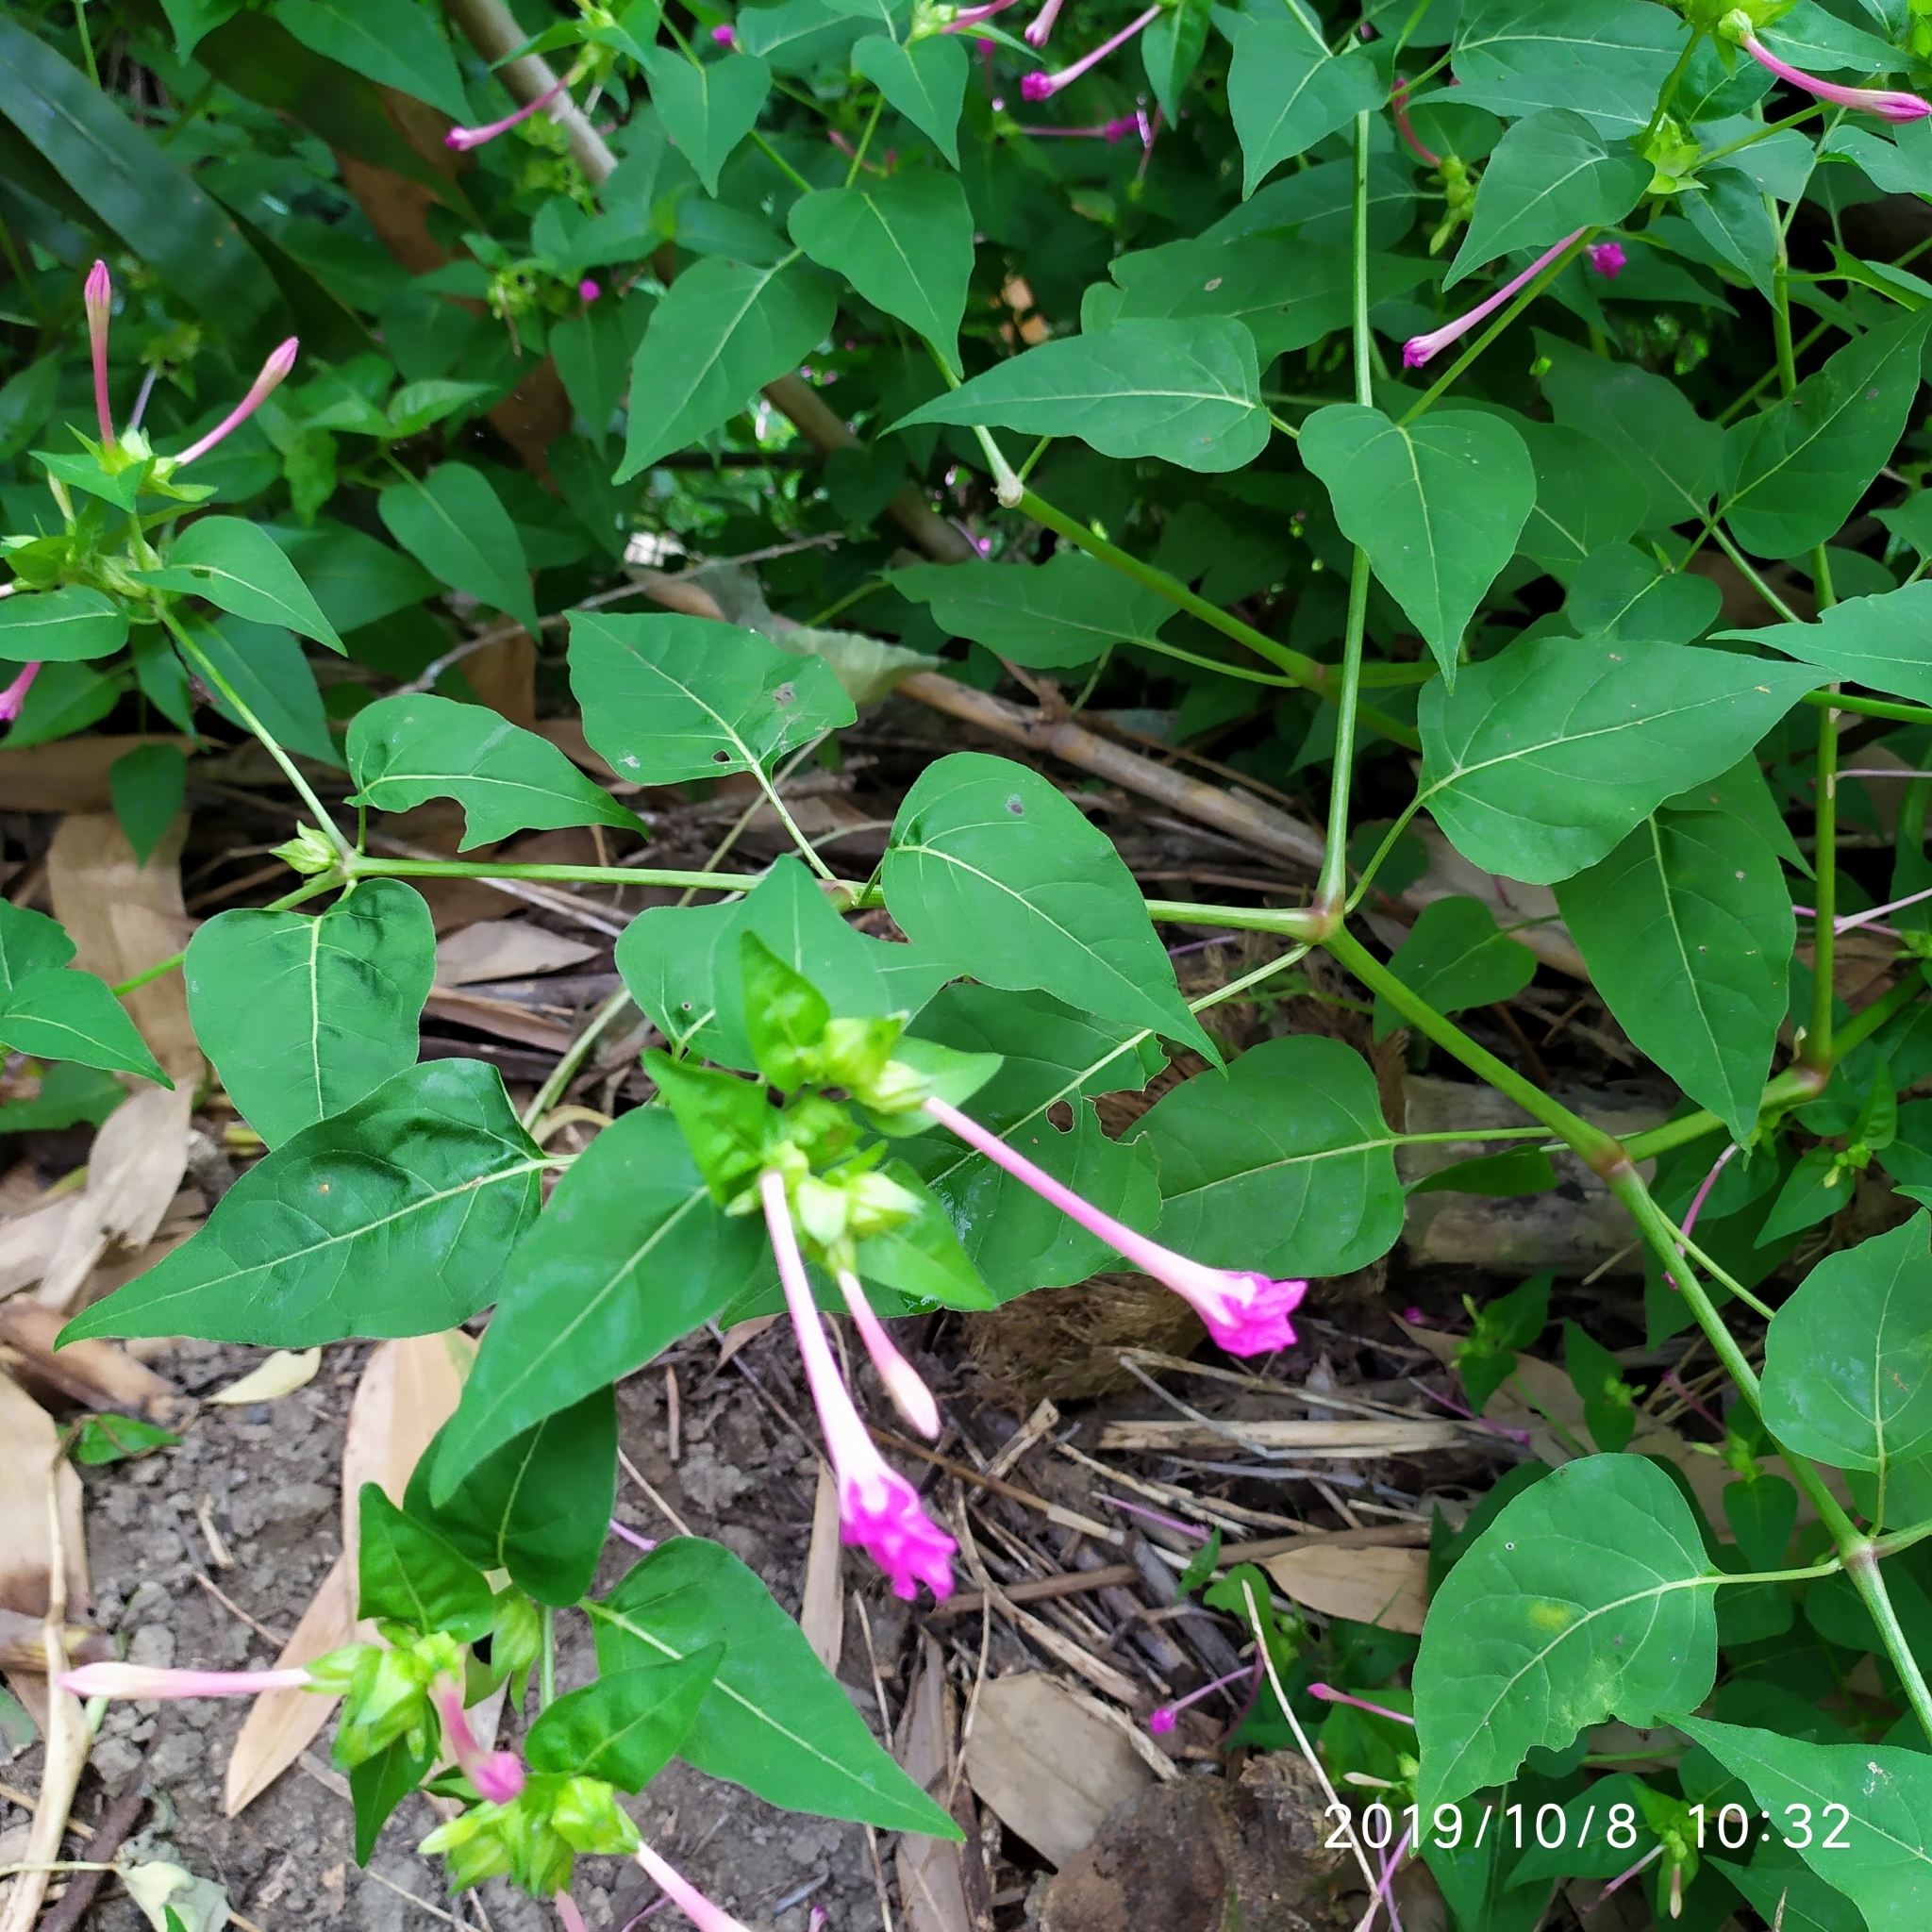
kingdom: Plantae
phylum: Tracheophyta
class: Magnoliopsida
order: Caryophyllales
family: Nyctaginaceae
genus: Mirabilis
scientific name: Mirabilis jalapa
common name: Marvel-of-peru
